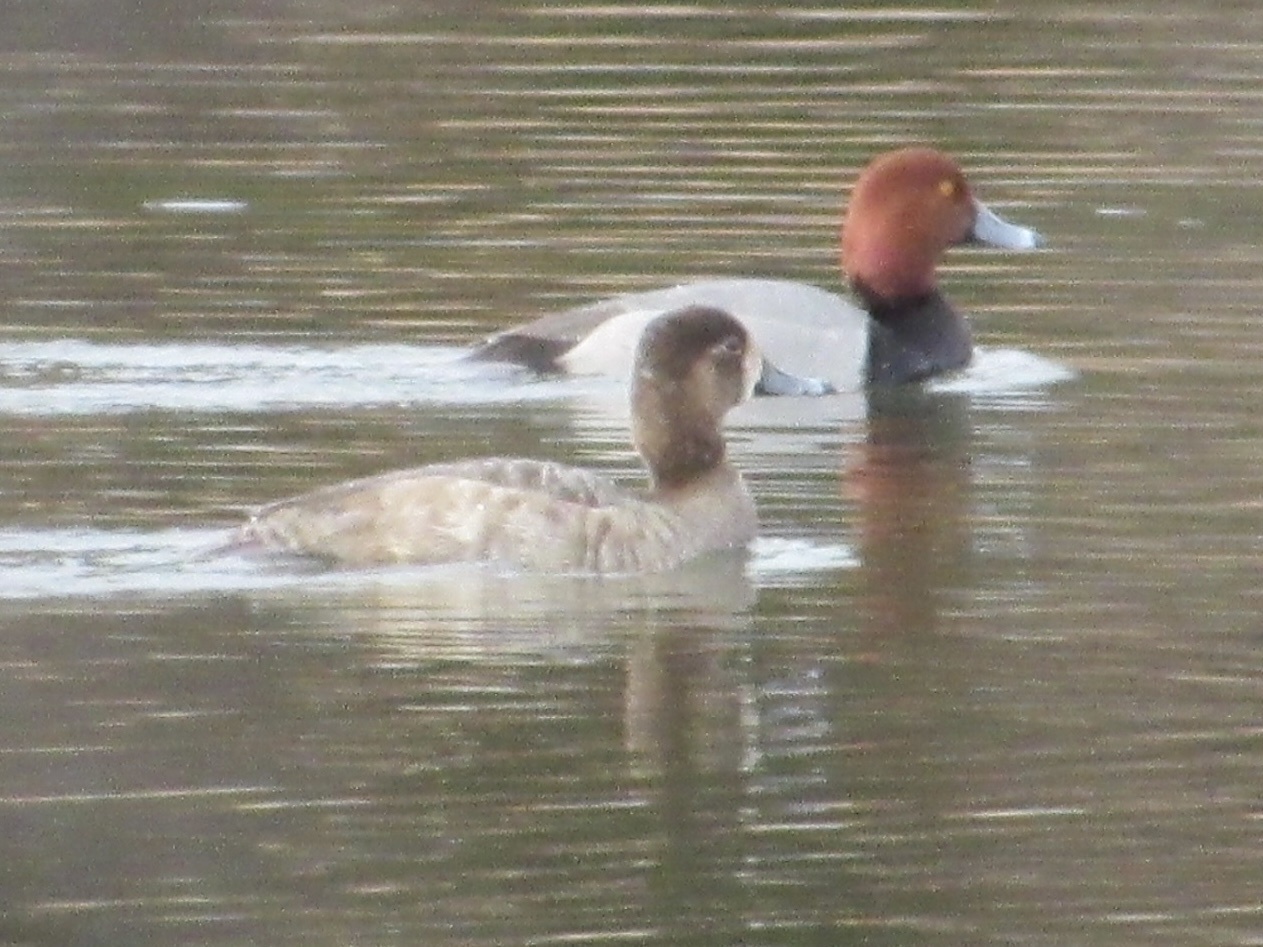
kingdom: Animalia
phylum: Chordata
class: Aves
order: Anseriformes
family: Anatidae
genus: Aythya
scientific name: Aythya americana
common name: Redhead
